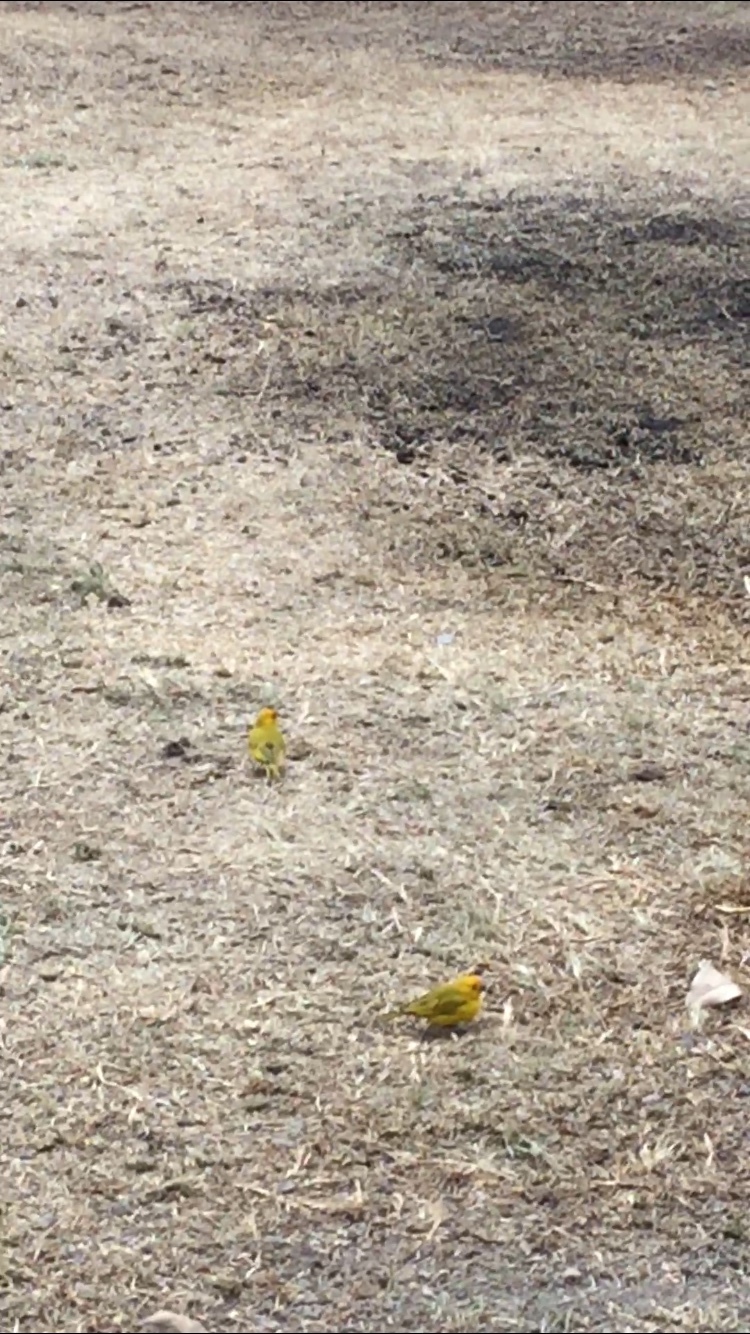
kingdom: Animalia
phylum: Chordata
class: Aves
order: Passeriformes
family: Thraupidae
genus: Sicalis
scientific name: Sicalis flaveola
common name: Saffron finch
